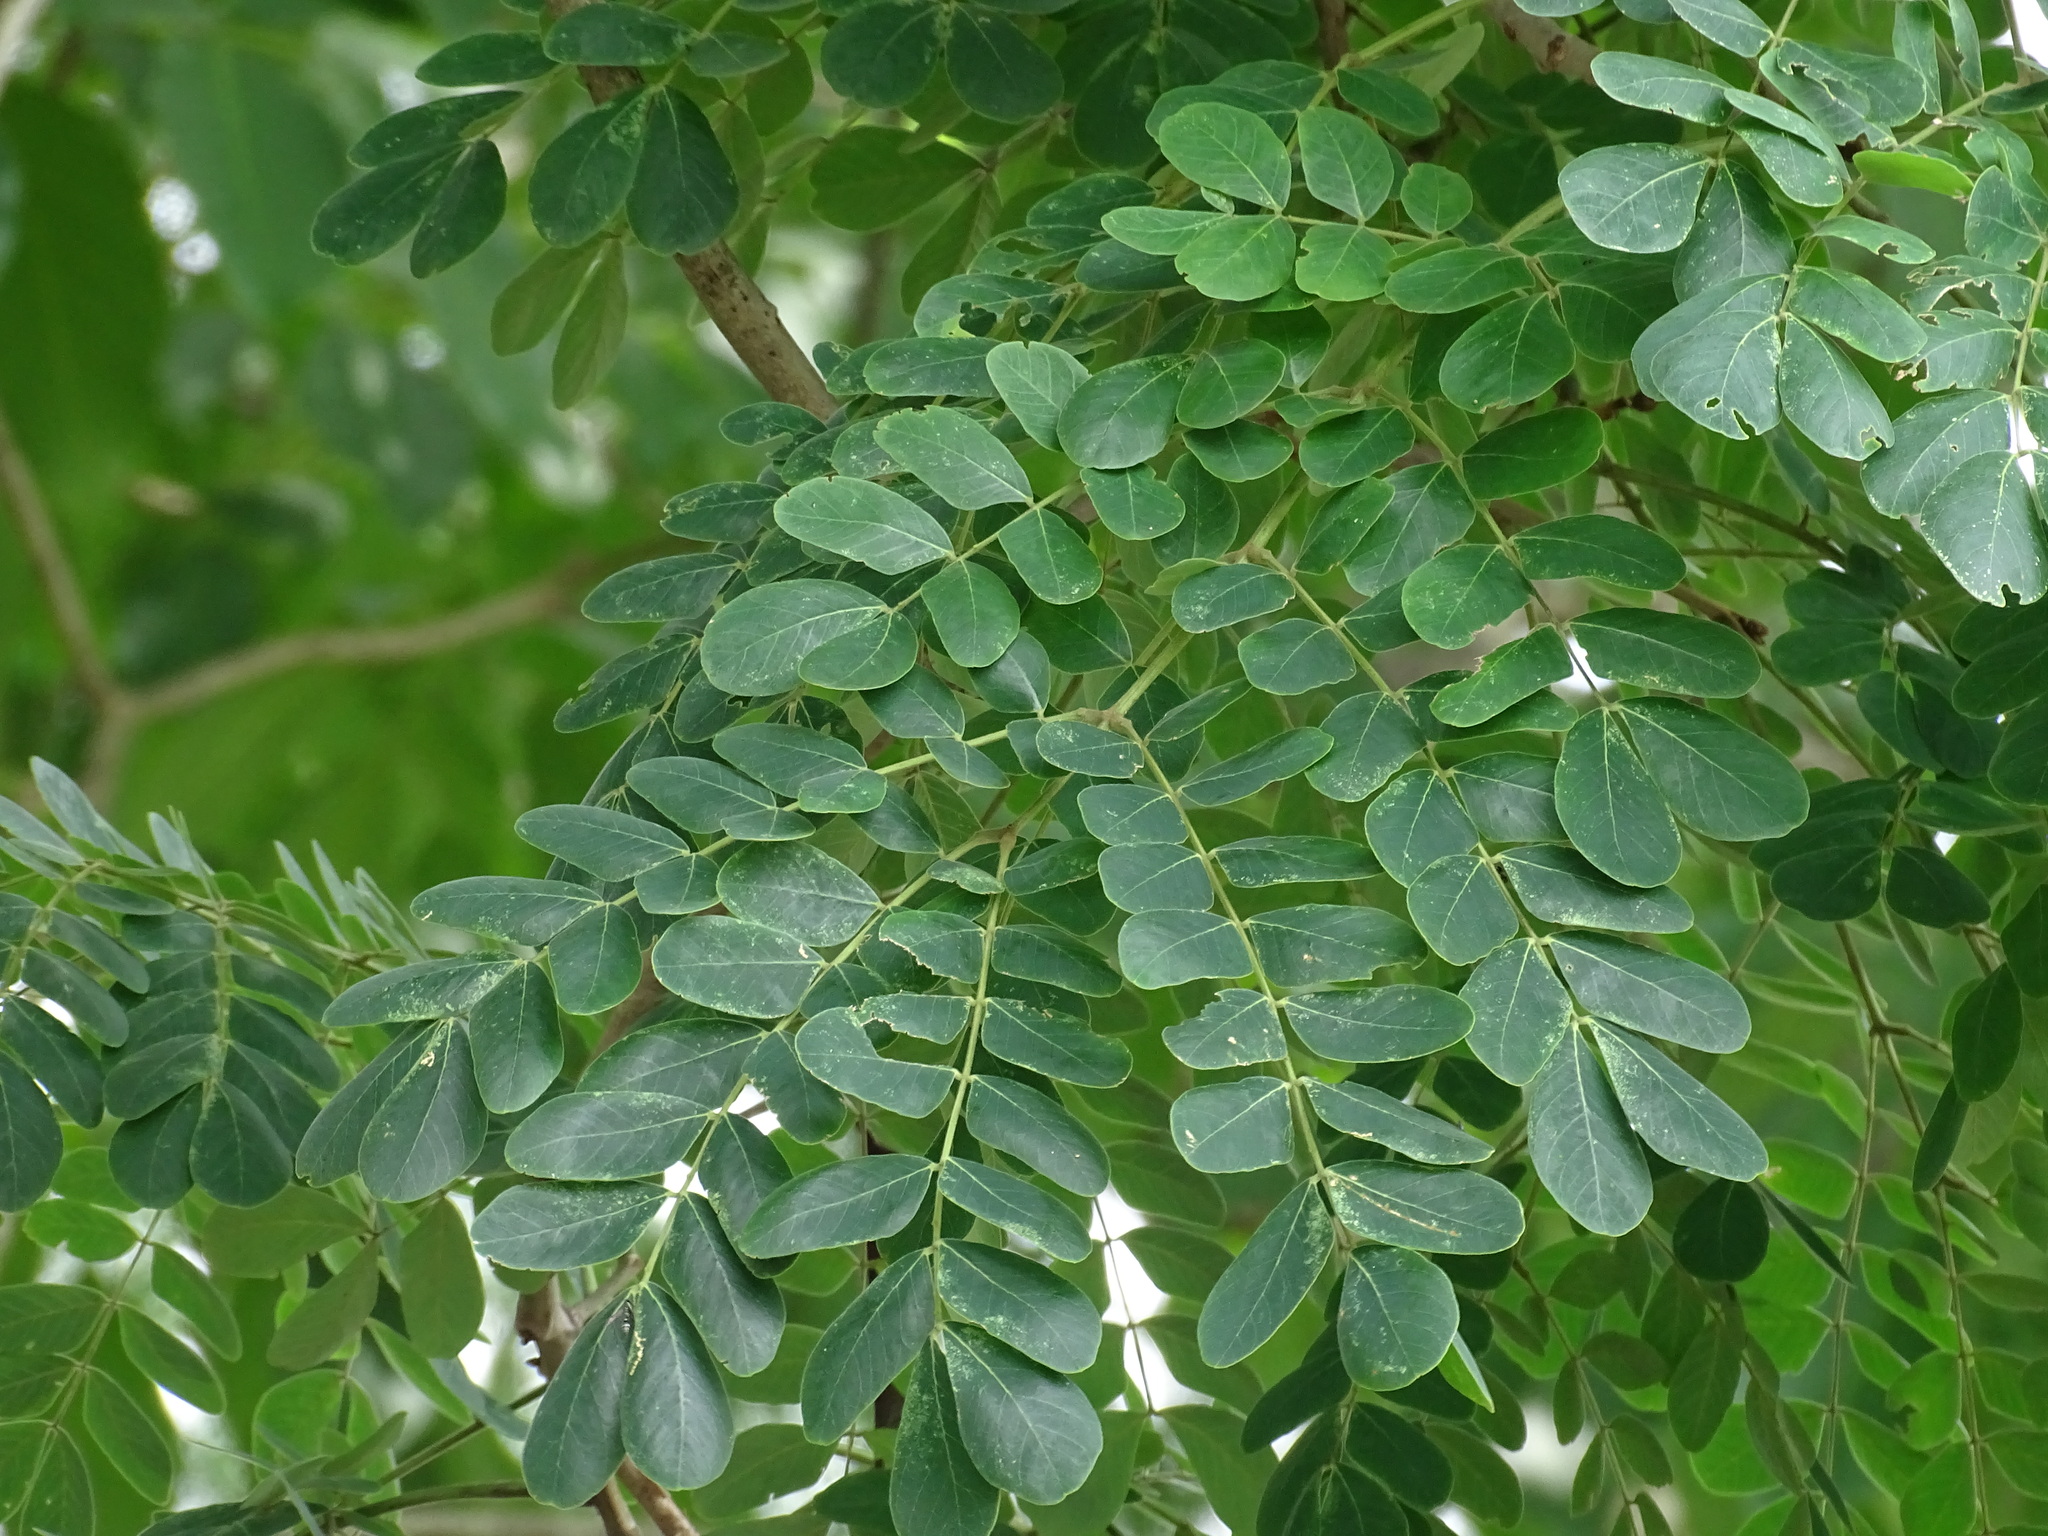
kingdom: Plantae
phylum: Tracheophyta
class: Magnoliopsida
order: Fabales
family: Fabaceae
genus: Balizia
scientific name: Balizia leucocalyx
